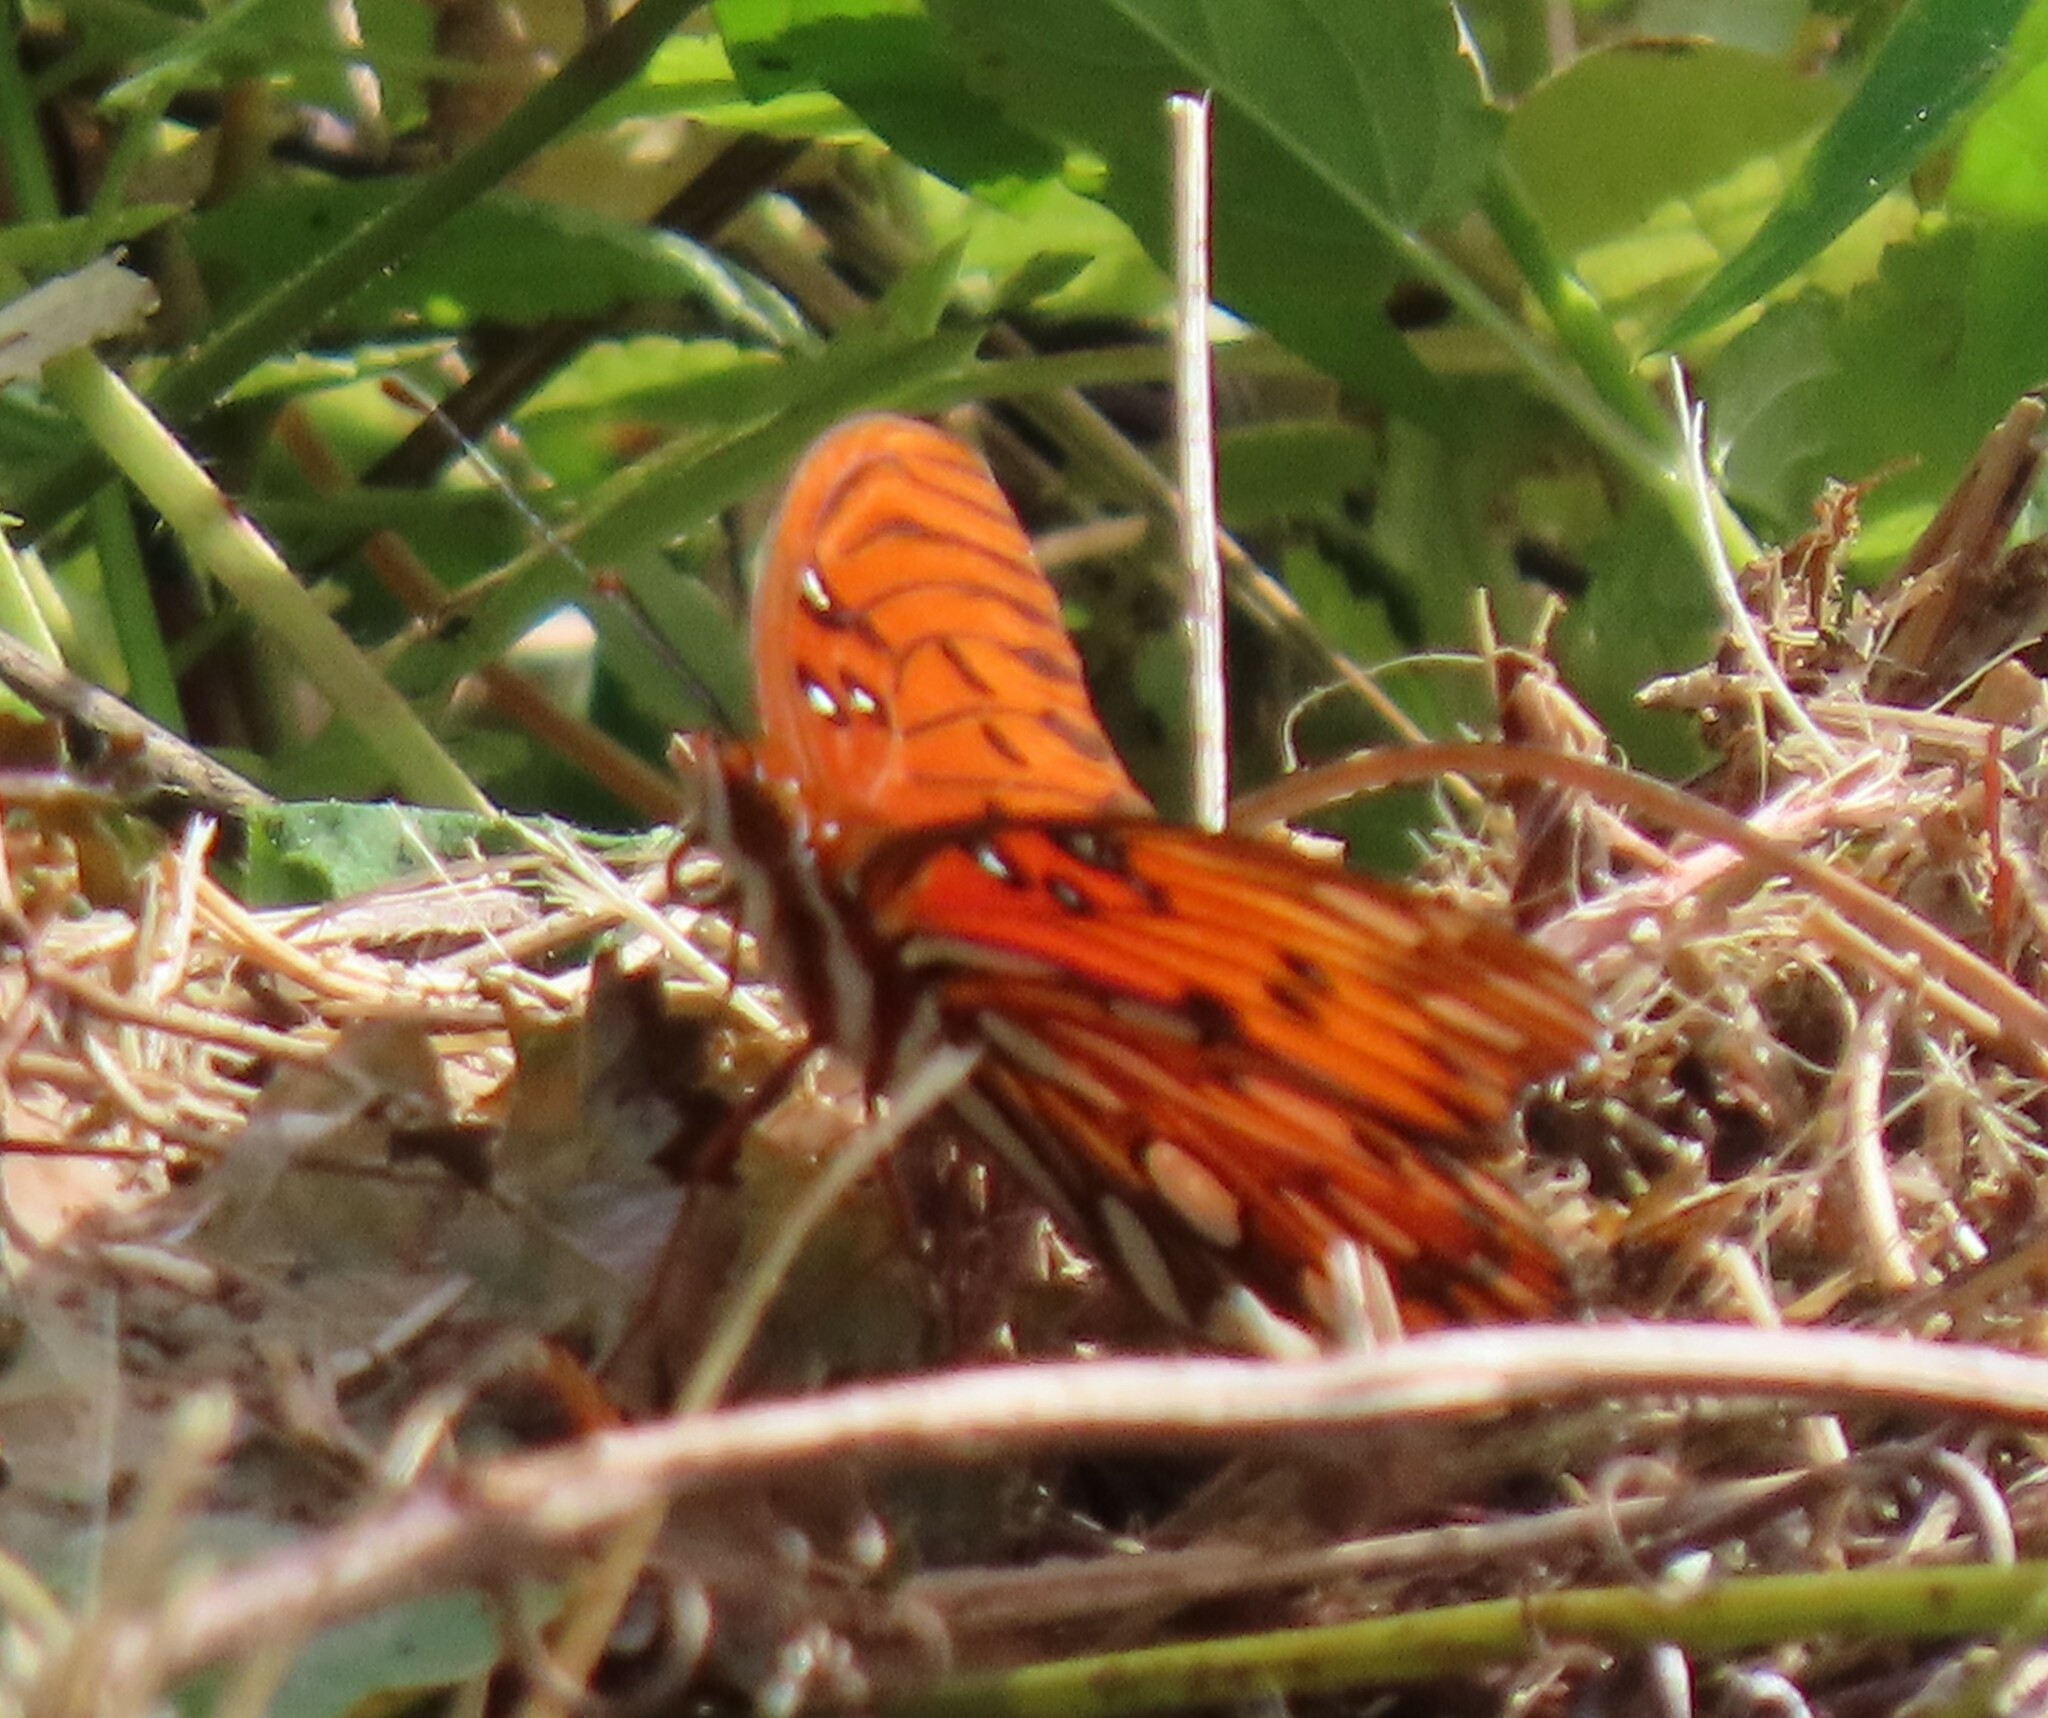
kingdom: Animalia
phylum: Arthropoda
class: Insecta
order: Lepidoptera
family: Nymphalidae
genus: Dione
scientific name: Dione vanillae
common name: Gulf fritillary
